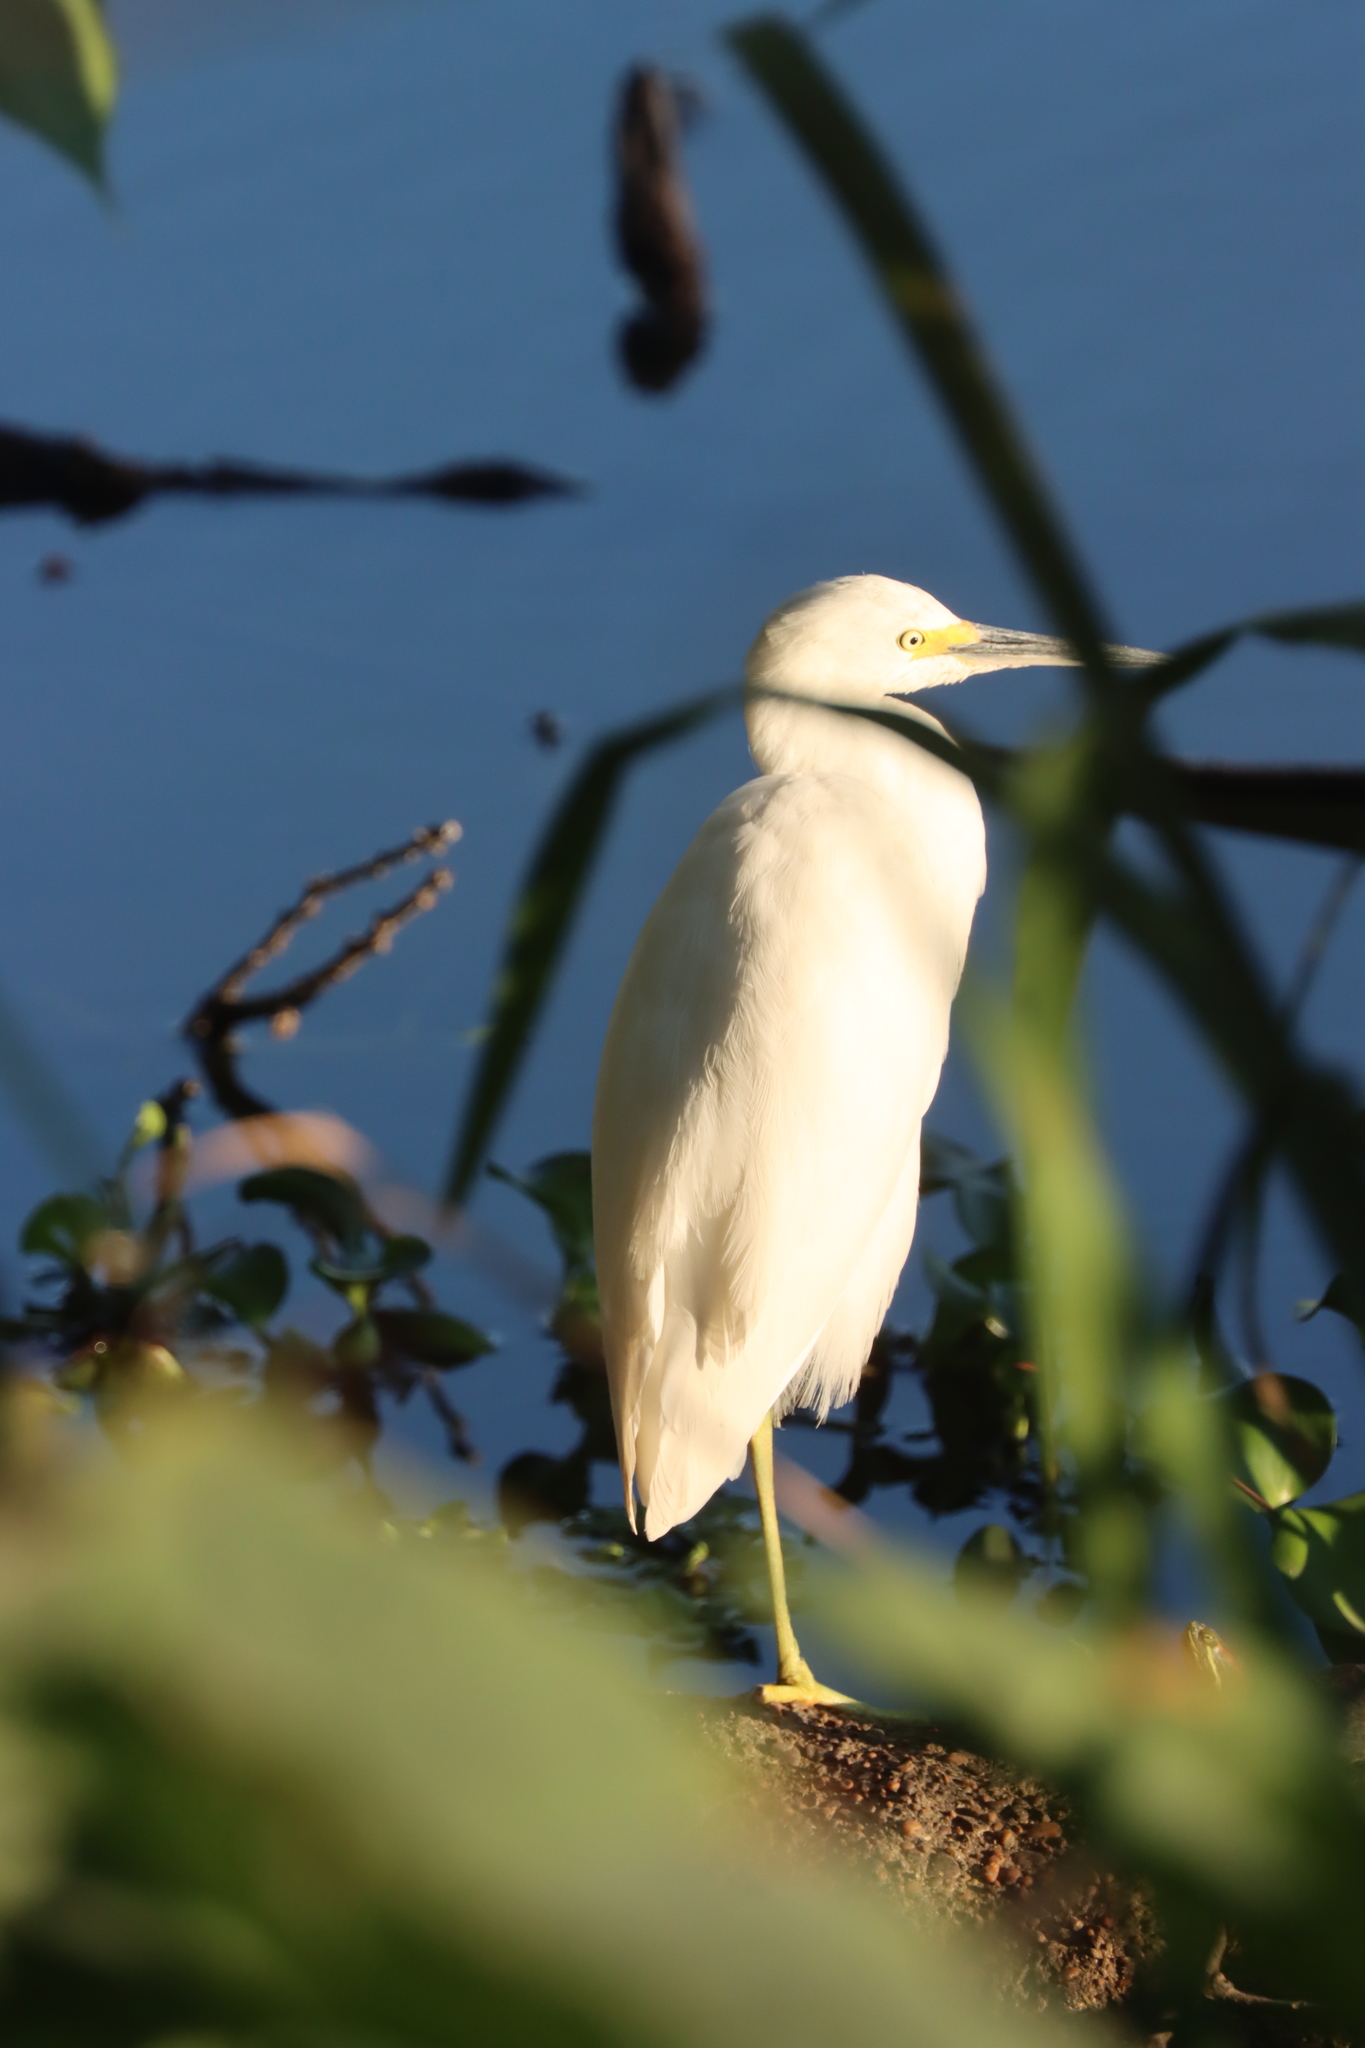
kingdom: Animalia
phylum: Chordata
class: Aves
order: Pelecaniformes
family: Ardeidae
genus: Egretta
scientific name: Egretta thula
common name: Snowy egret
